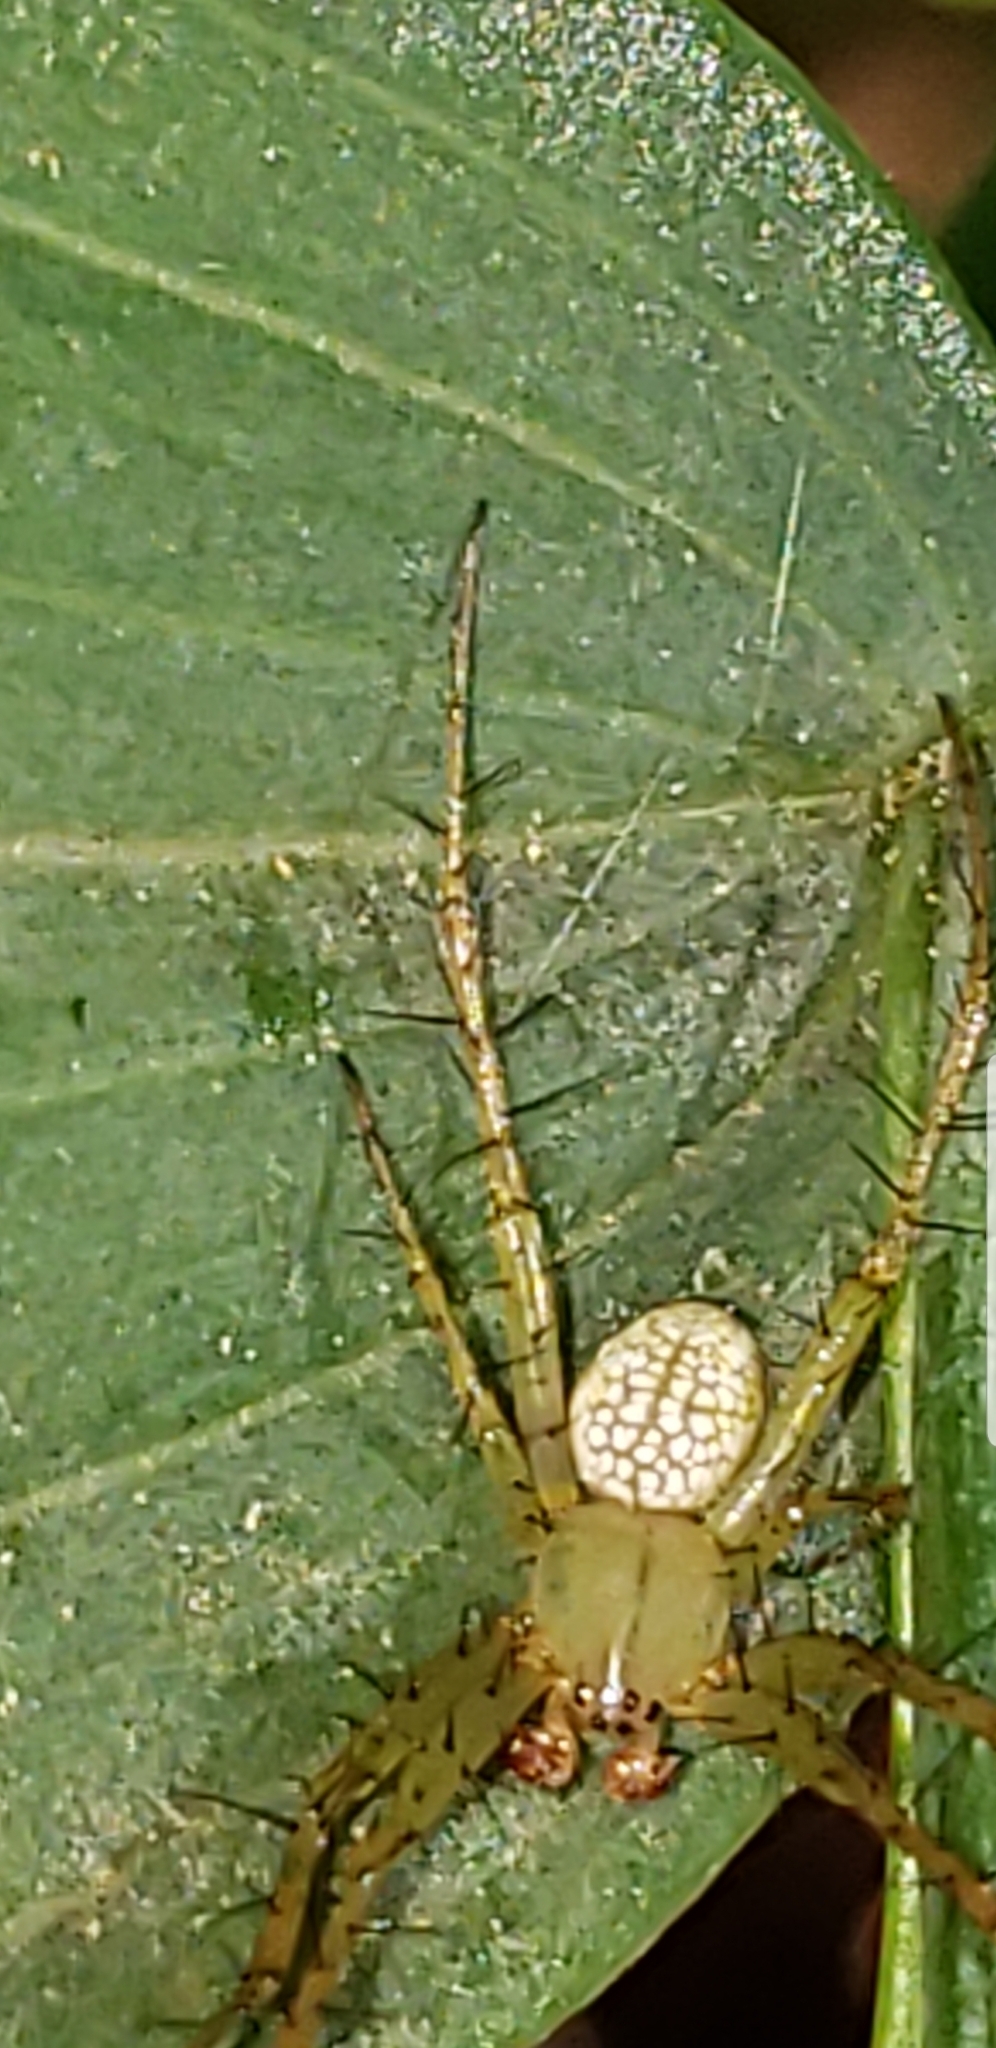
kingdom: Animalia
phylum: Arthropoda
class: Arachnida
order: Araneae
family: Araneidae
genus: Mangora
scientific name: Mangora maculata
